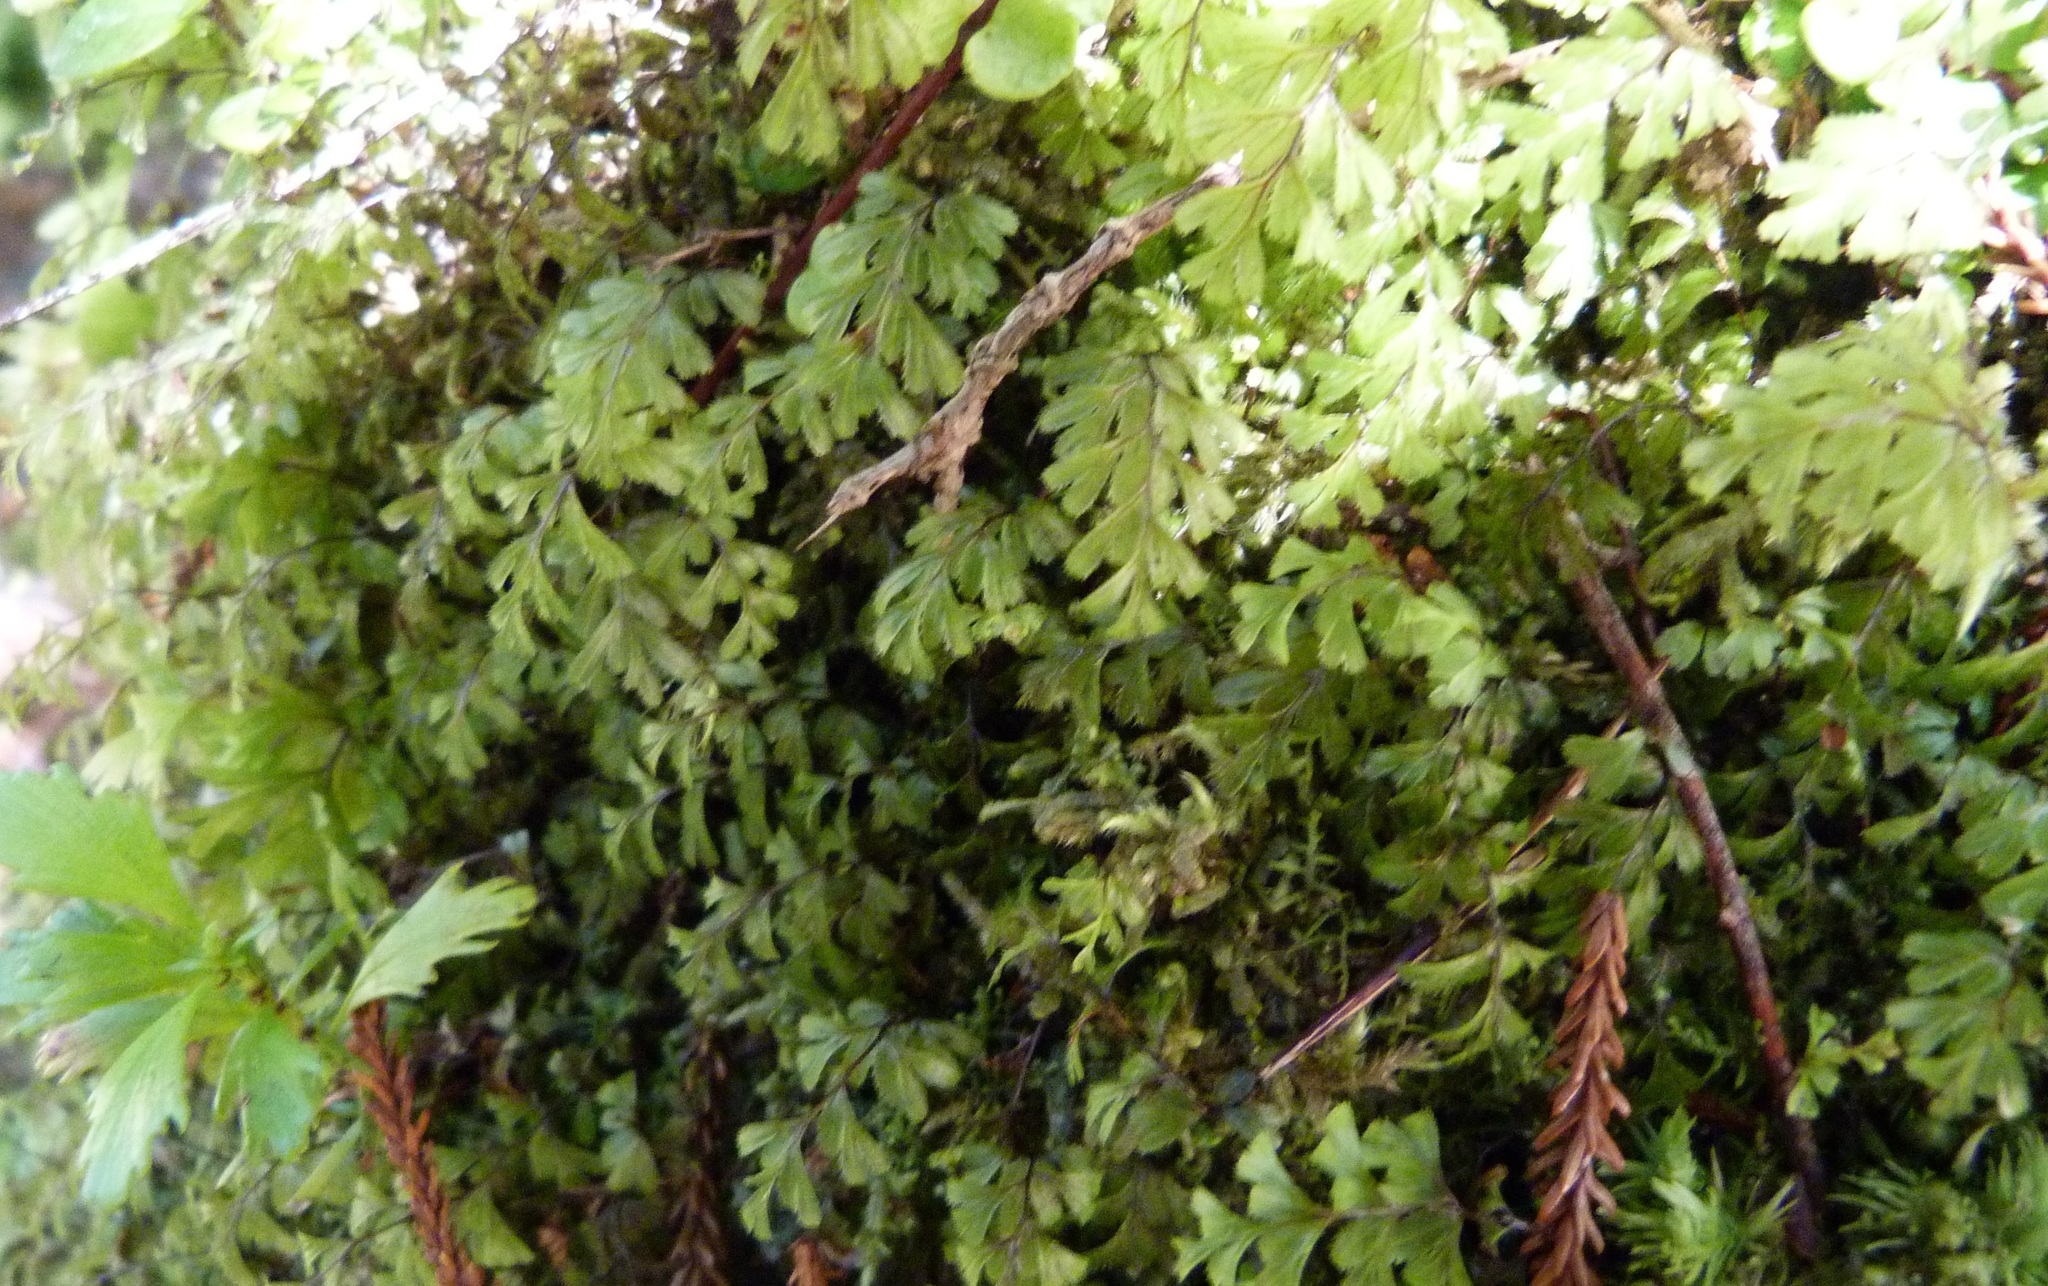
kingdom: Plantae
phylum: Tracheophyta
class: Polypodiopsida
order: Hymenophyllales
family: Hymenophyllaceae
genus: Hymenophyllum
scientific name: Hymenophyllum revolutum
